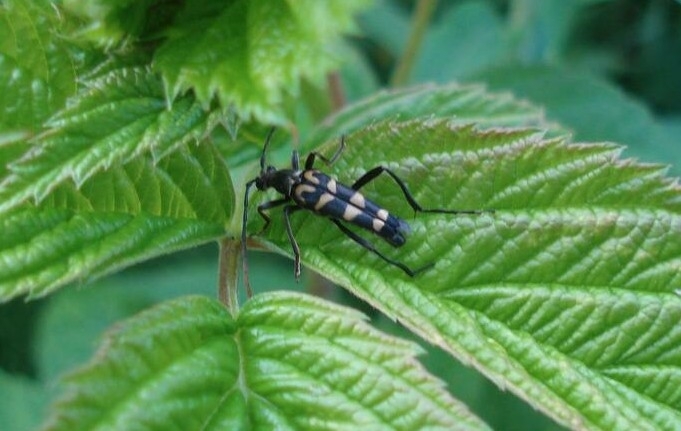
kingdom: Animalia
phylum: Arthropoda
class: Insecta
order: Coleoptera
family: Cerambycidae
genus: Leptura
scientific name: Leptura annularis
